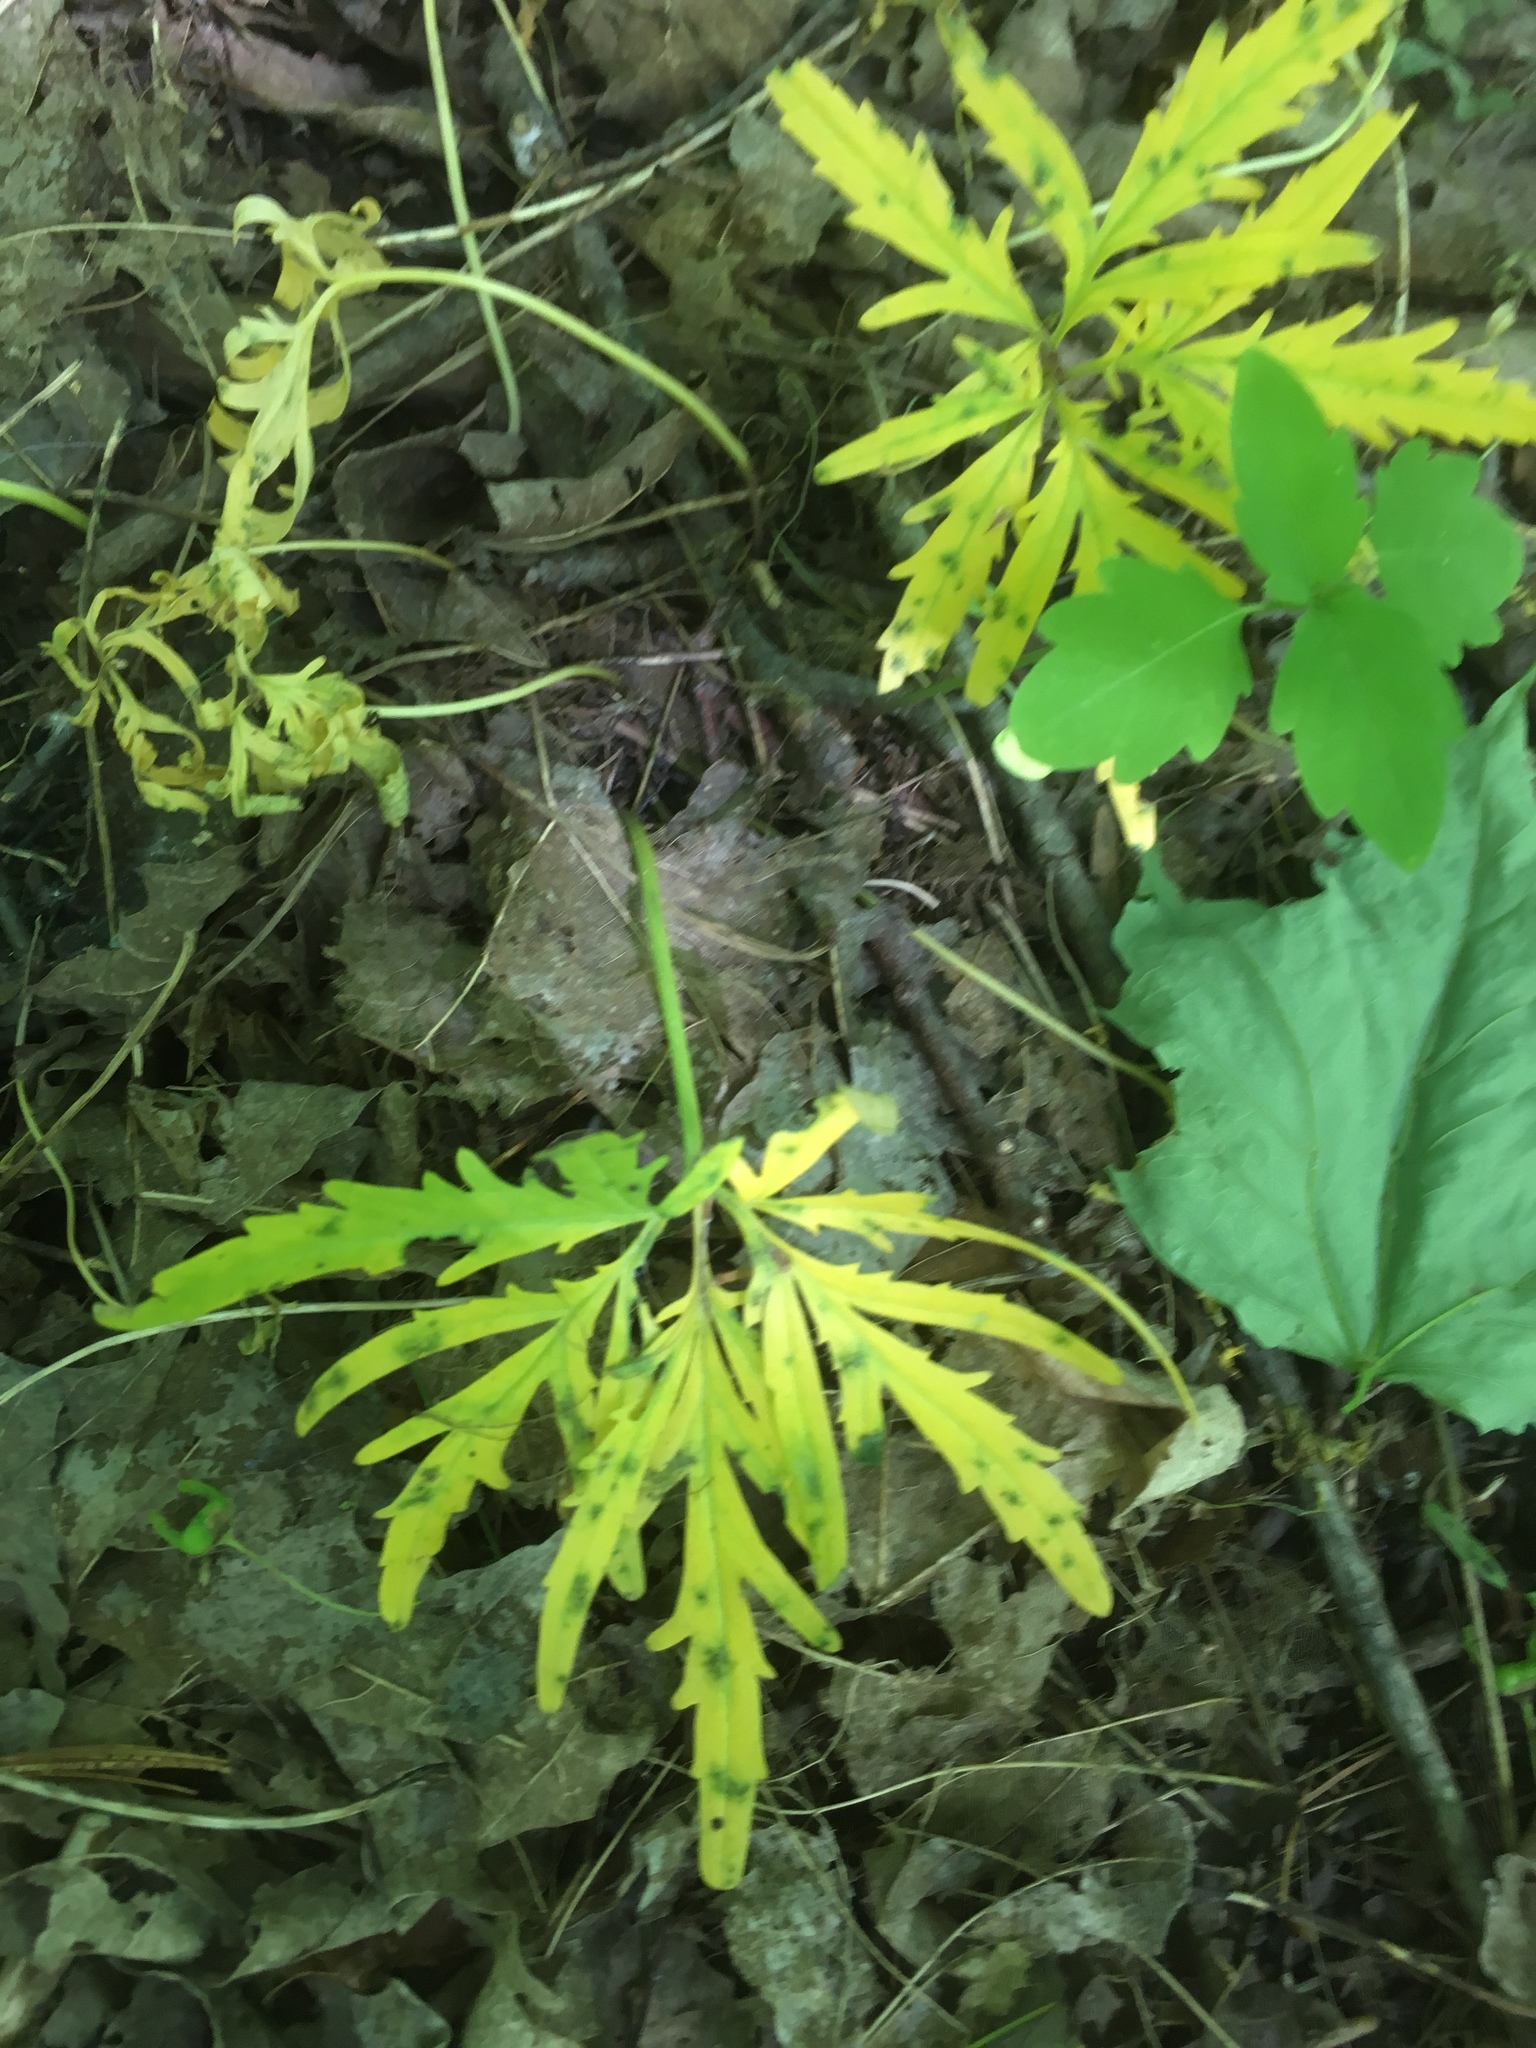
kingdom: Plantae
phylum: Tracheophyta
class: Magnoliopsida
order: Brassicales
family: Brassicaceae
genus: Cardamine
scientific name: Cardamine concatenata
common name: Cut-leaf toothcup
